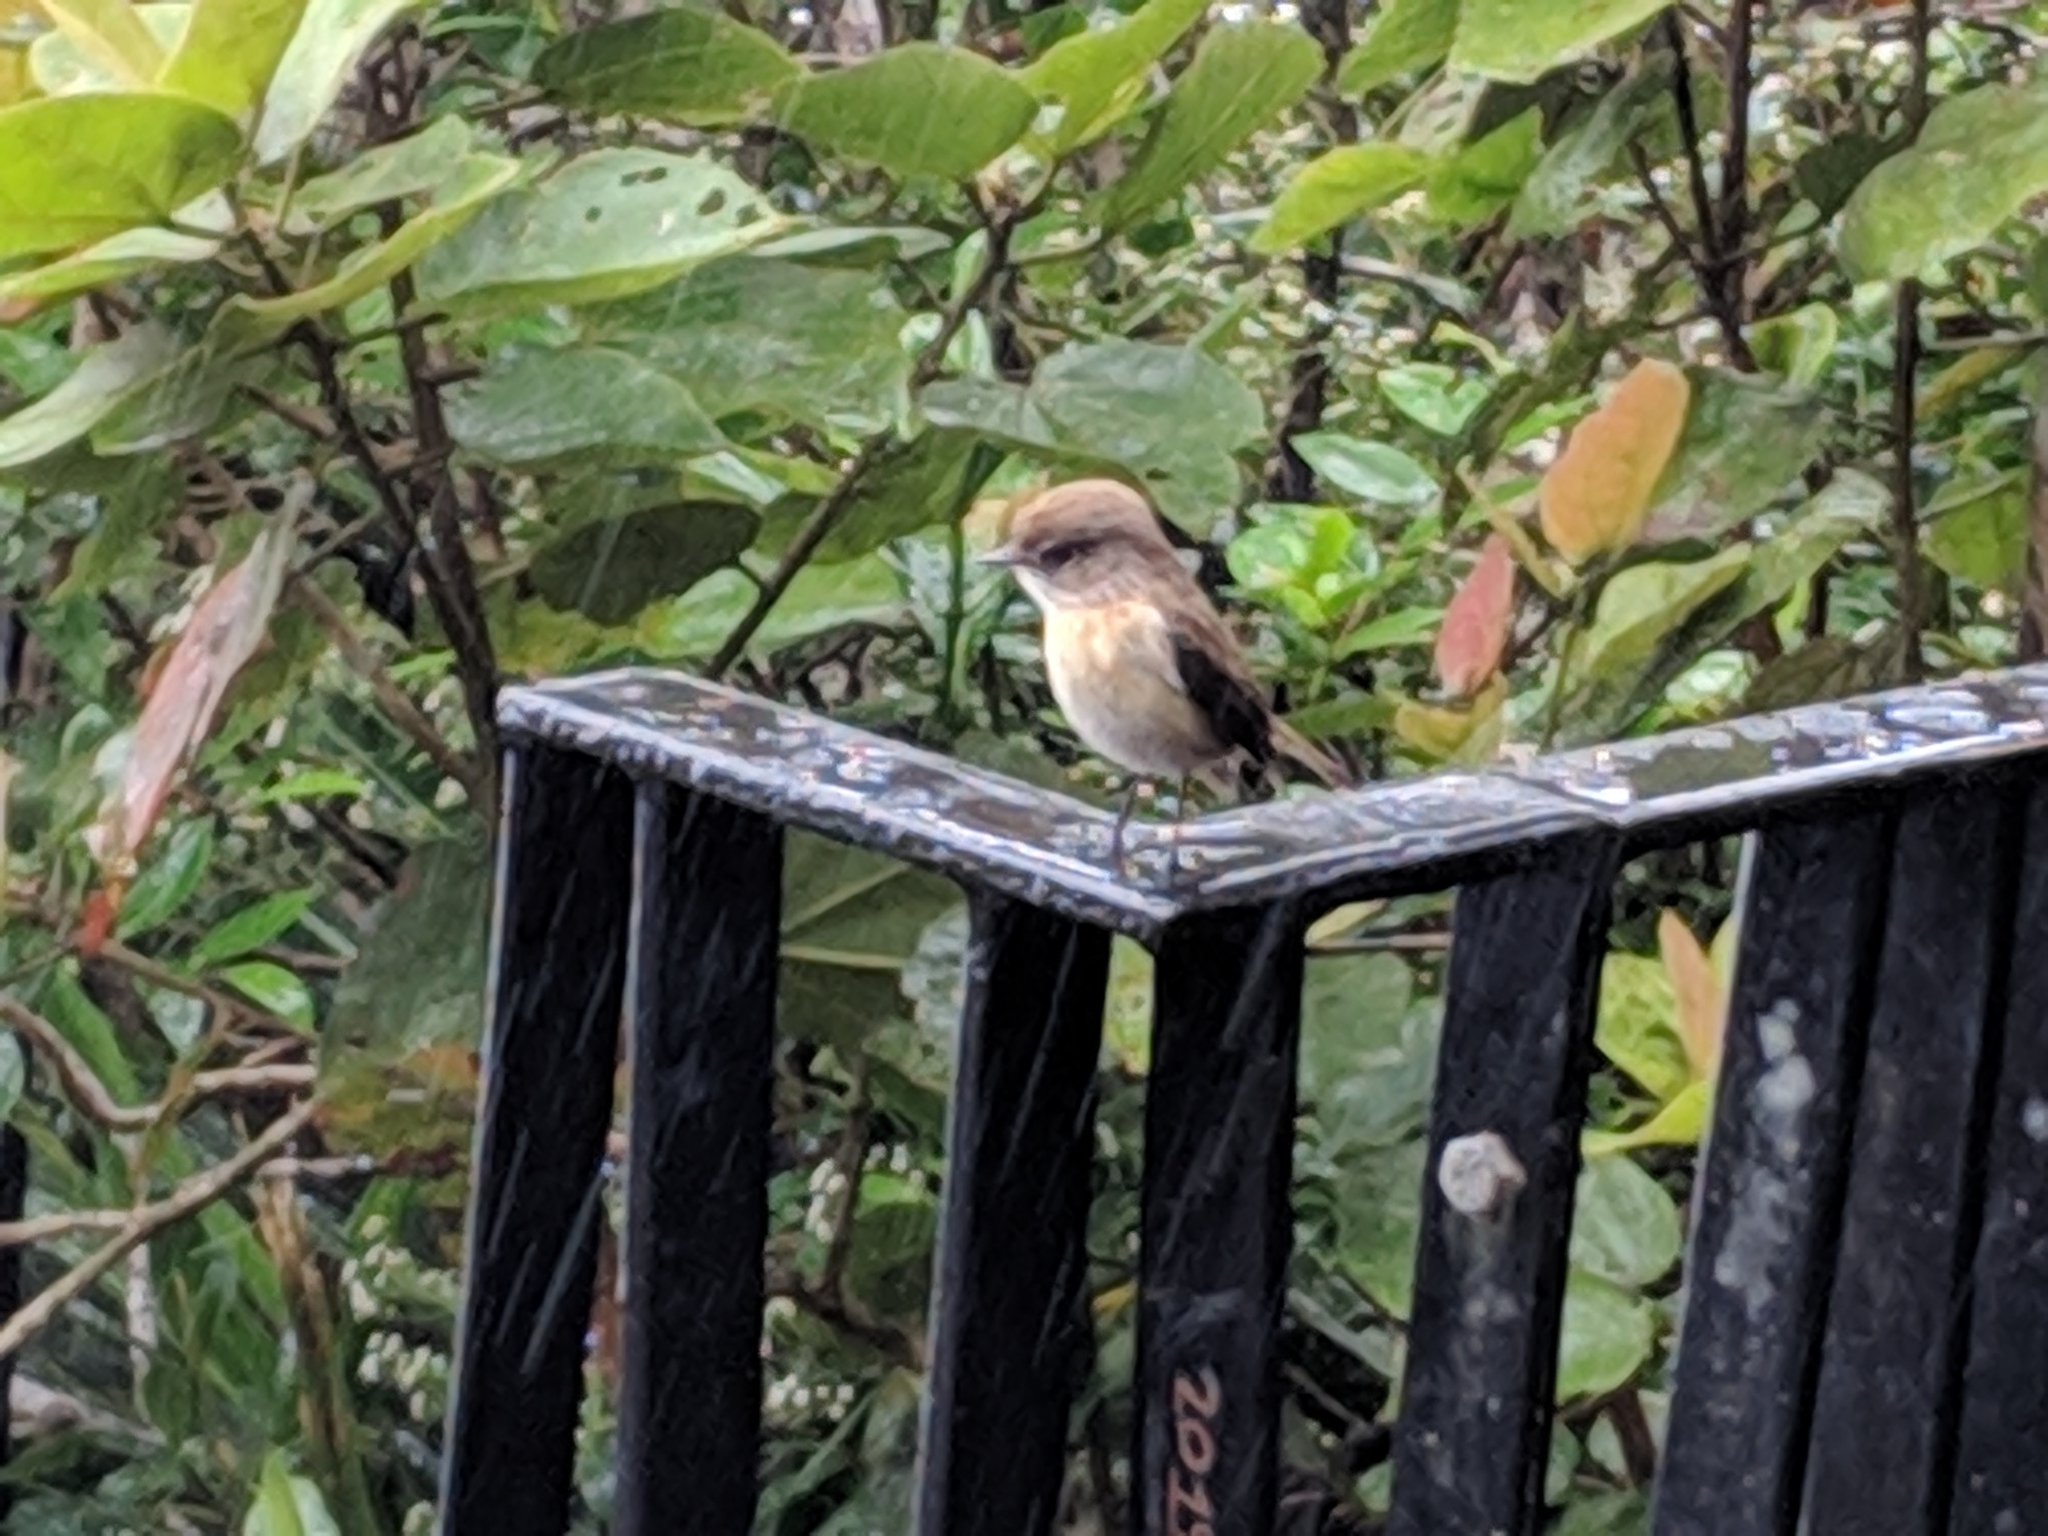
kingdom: Animalia
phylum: Chordata
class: Aves
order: Passeriformes
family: Muscicapidae
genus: Saxicola
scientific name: Saxicola tectes
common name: Reunion stonechat
